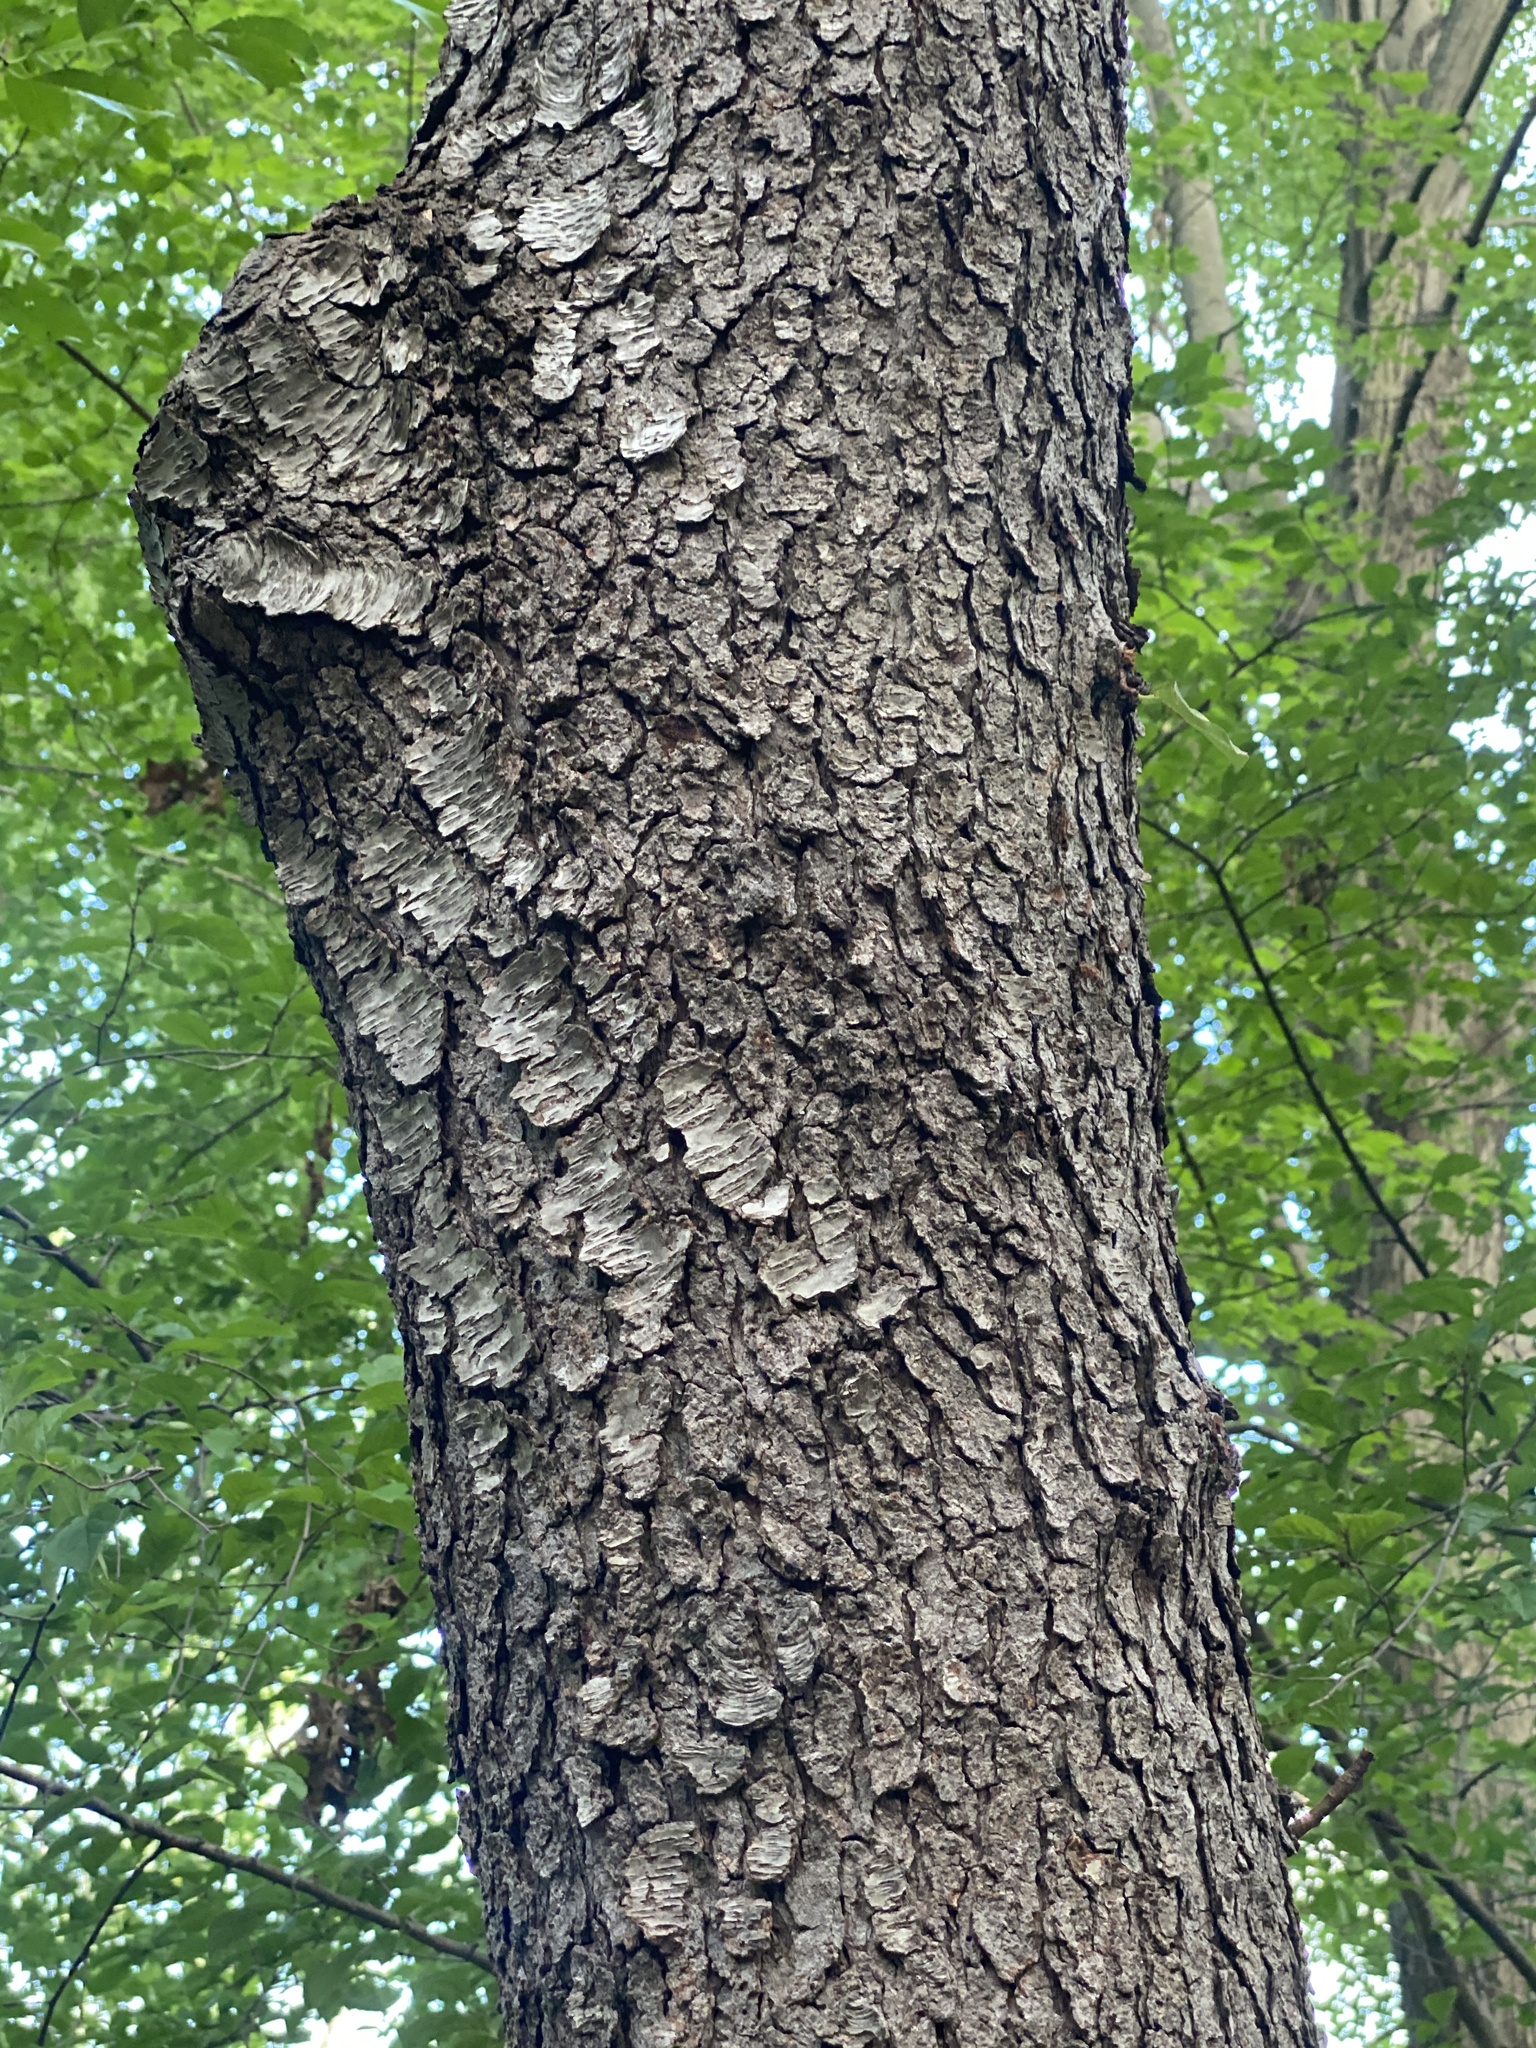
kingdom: Plantae
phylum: Tracheophyta
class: Magnoliopsida
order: Rosales
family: Rosaceae
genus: Prunus
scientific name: Prunus serotina
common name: Black cherry
